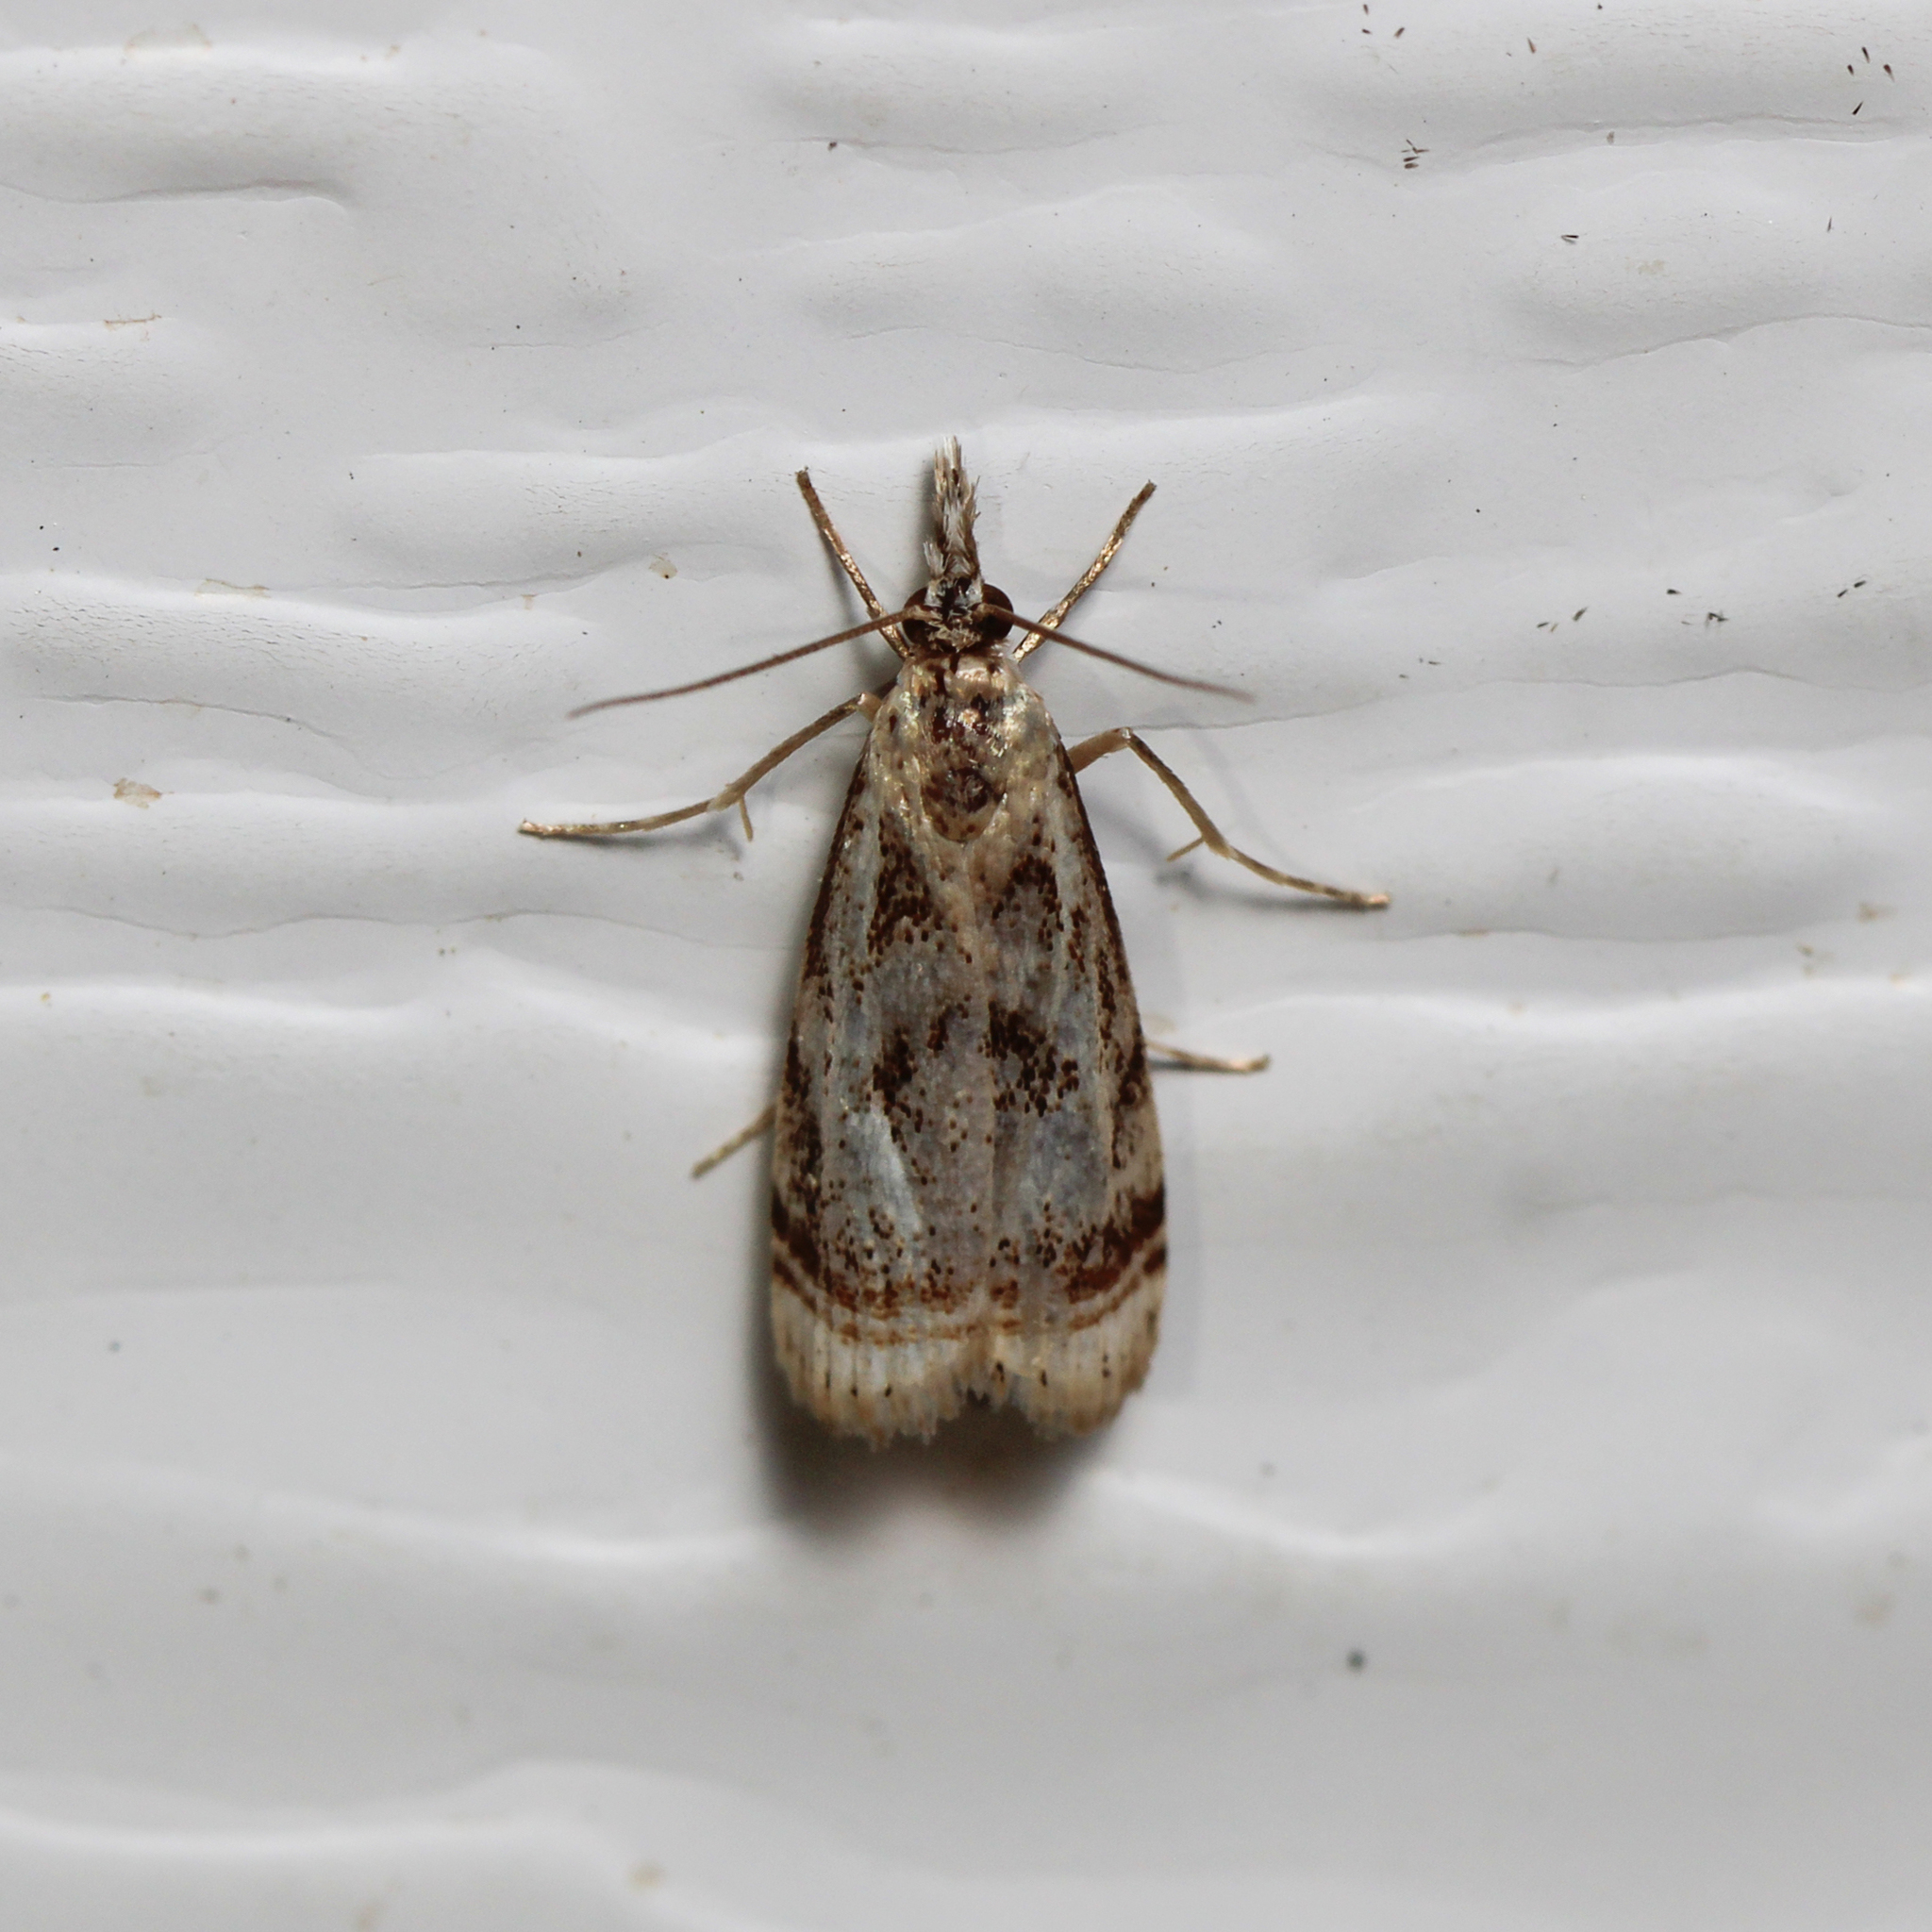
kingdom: Animalia
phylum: Arthropoda
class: Insecta
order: Lepidoptera
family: Crambidae
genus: Microcrambus
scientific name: Microcrambus elegans
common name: Elegant grass-veneer
